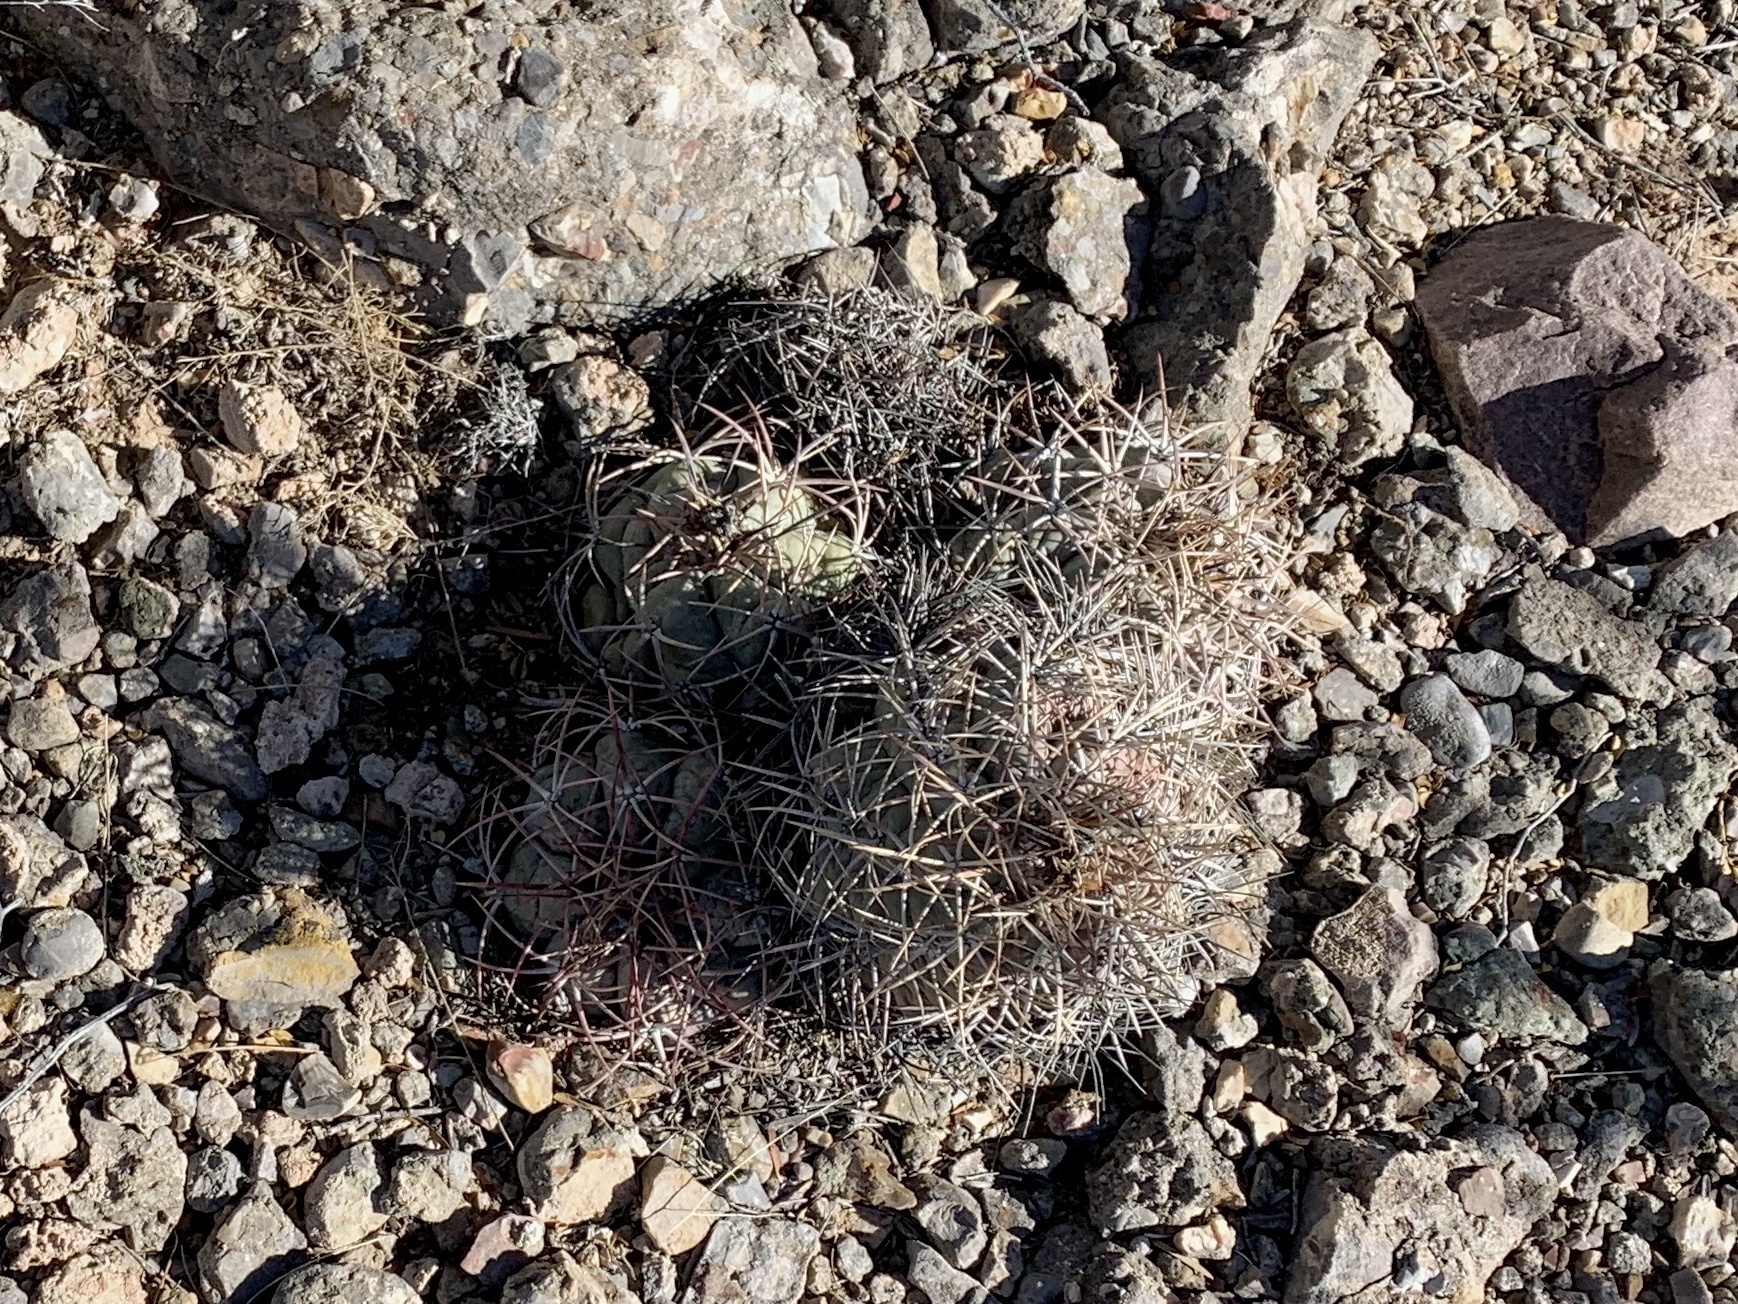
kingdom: Plantae
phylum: Tracheophyta
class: Magnoliopsida
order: Caryophyllales
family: Cactaceae
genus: Echinocactus
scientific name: Echinocactus horizonthalonius
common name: Devilshead
